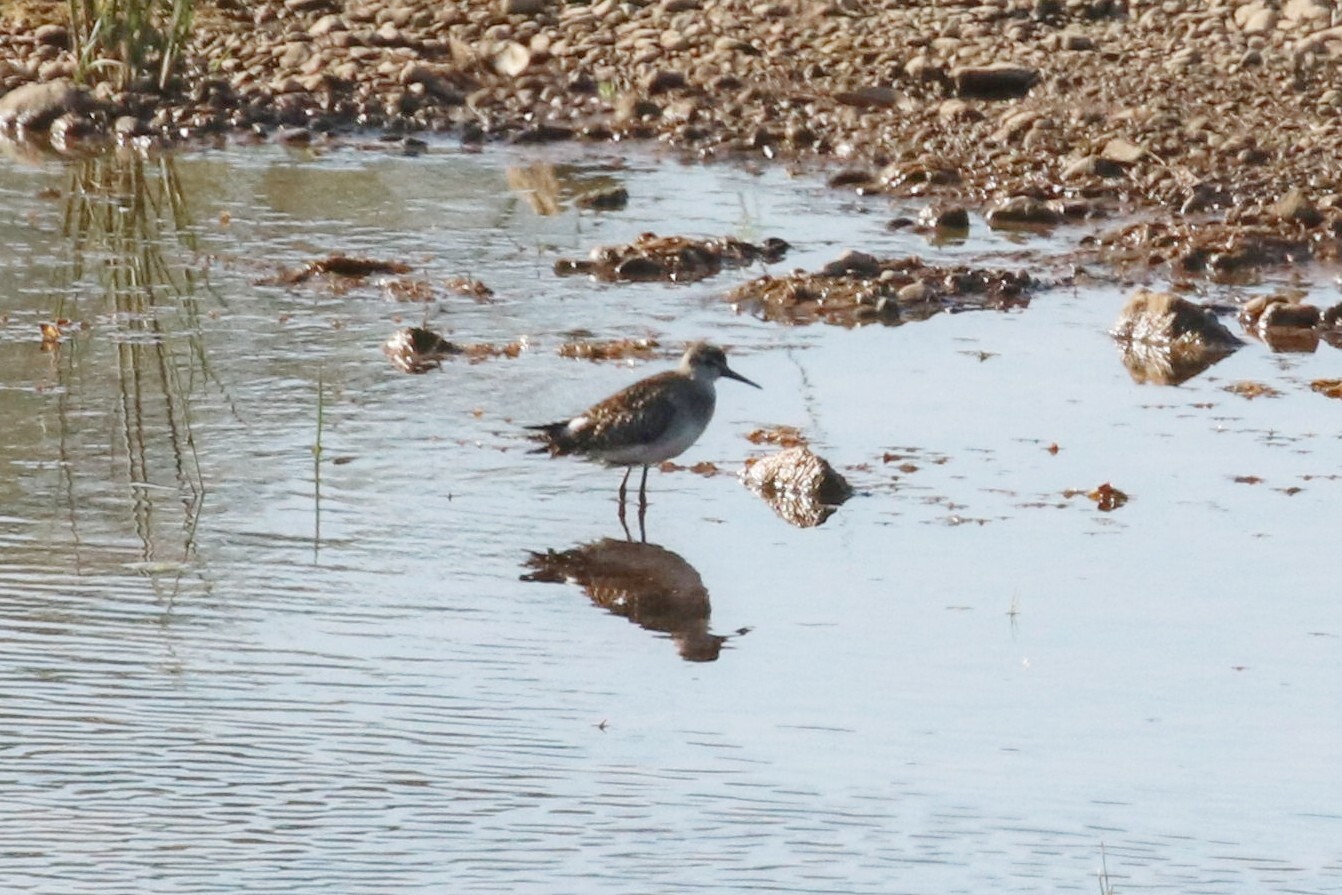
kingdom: Animalia
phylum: Chordata
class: Aves
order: Charadriiformes
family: Scolopacidae
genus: Tringa
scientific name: Tringa glareola
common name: Wood sandpiper
